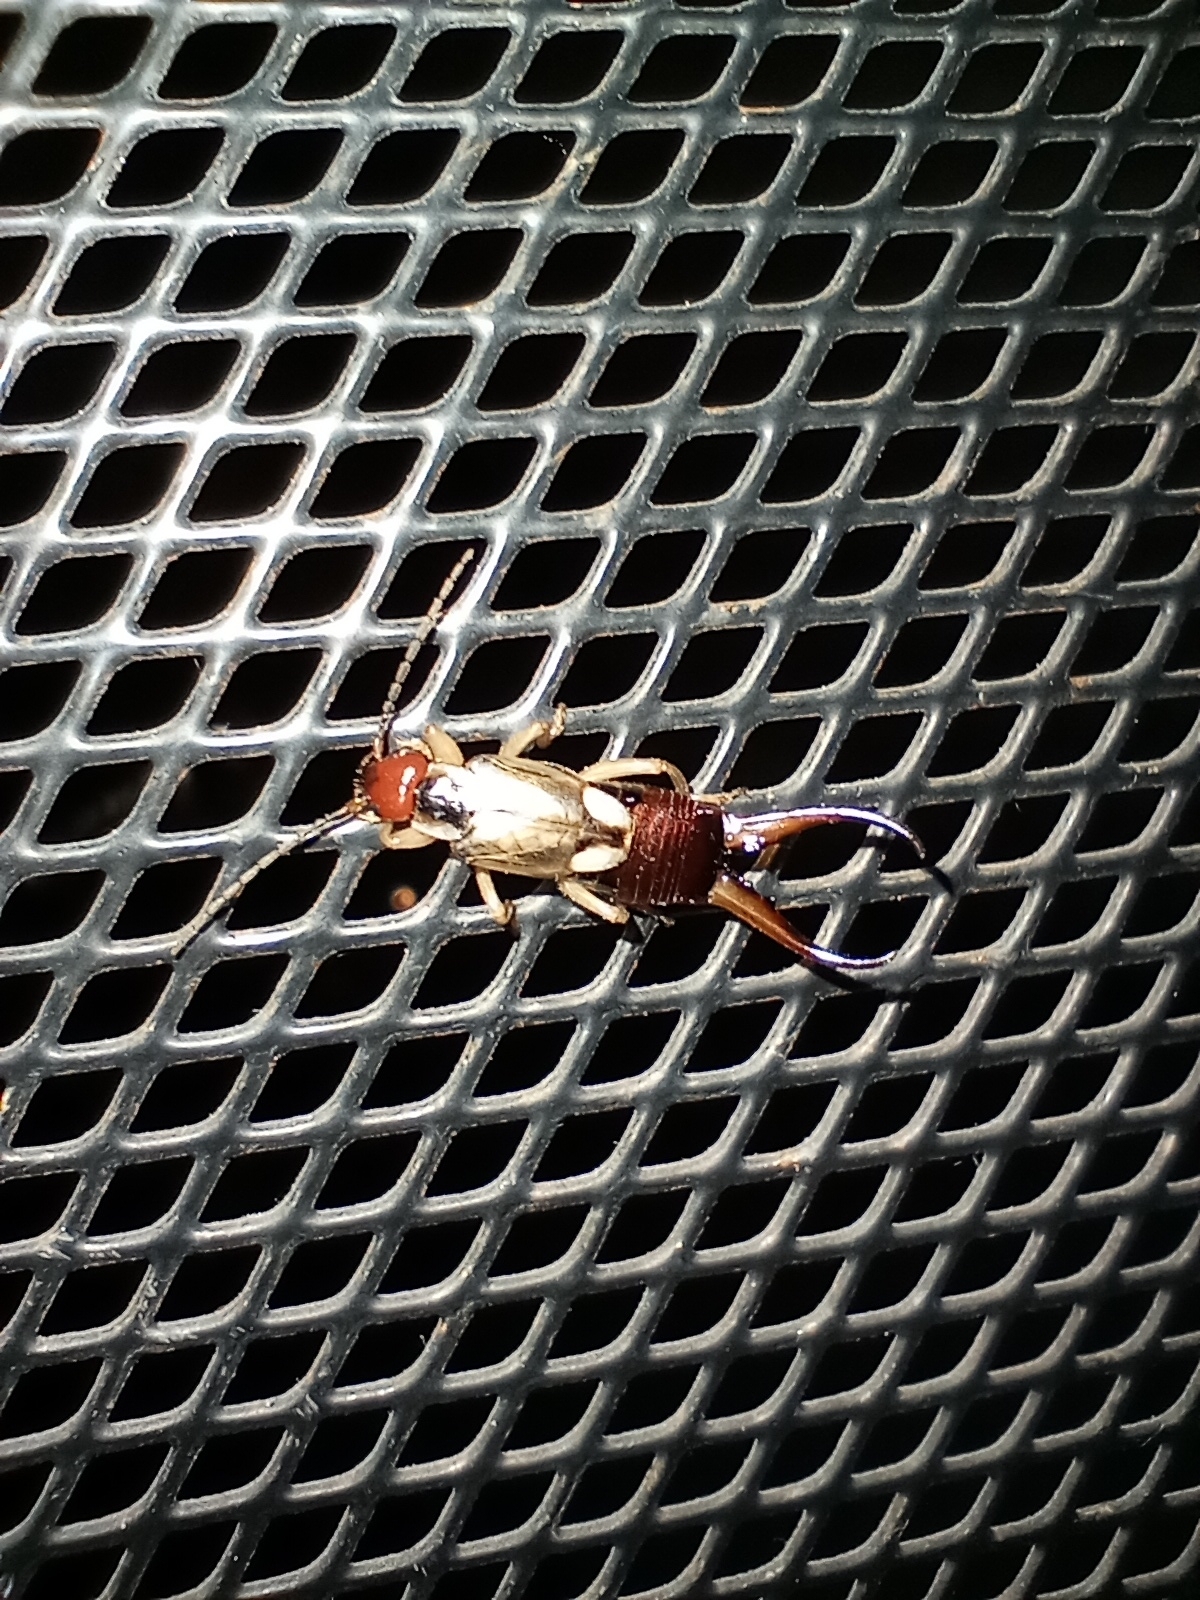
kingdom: Animalia
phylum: Arthropoda
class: Insecta
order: Dermaptera
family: Forficulidae
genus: Forficula
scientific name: Forficula
